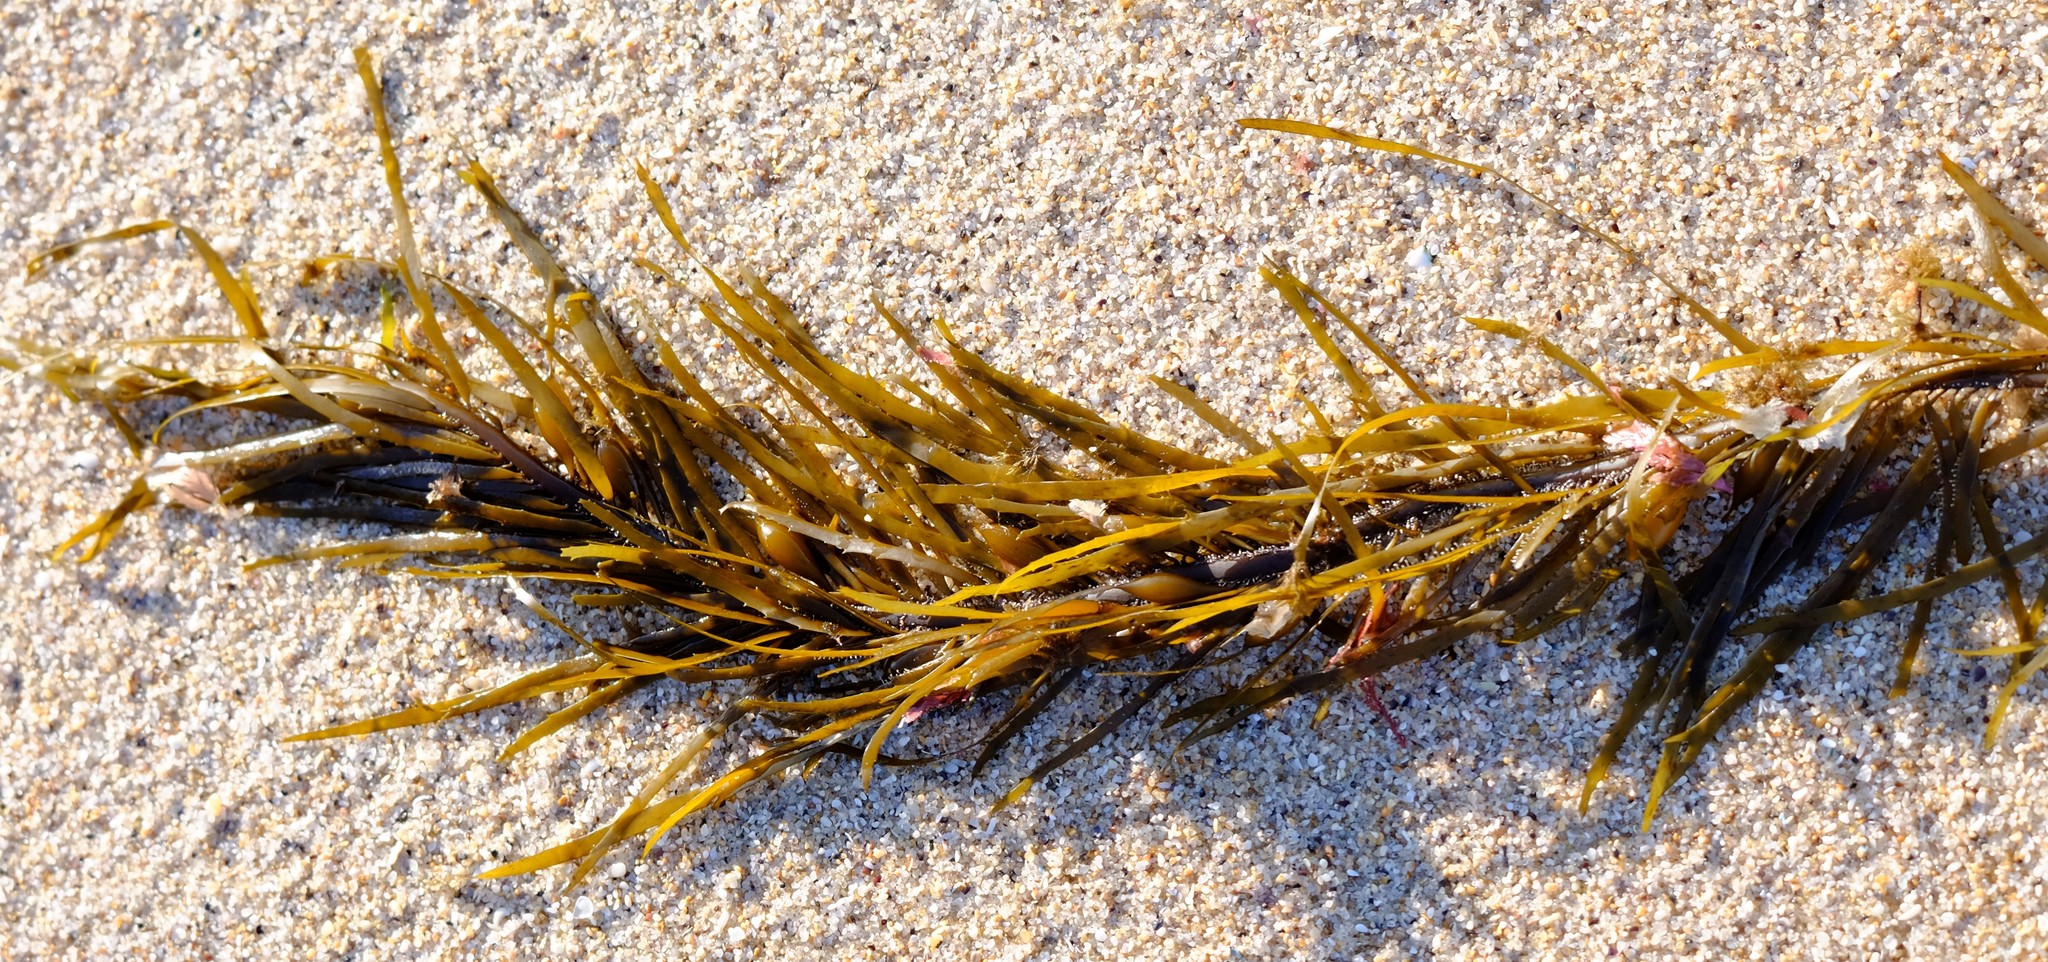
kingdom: Chromista
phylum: Ochrophyta
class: Phaeophyceae
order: Fucales
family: Seirococcaceae
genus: Phyllospora
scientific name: Phyllospora
